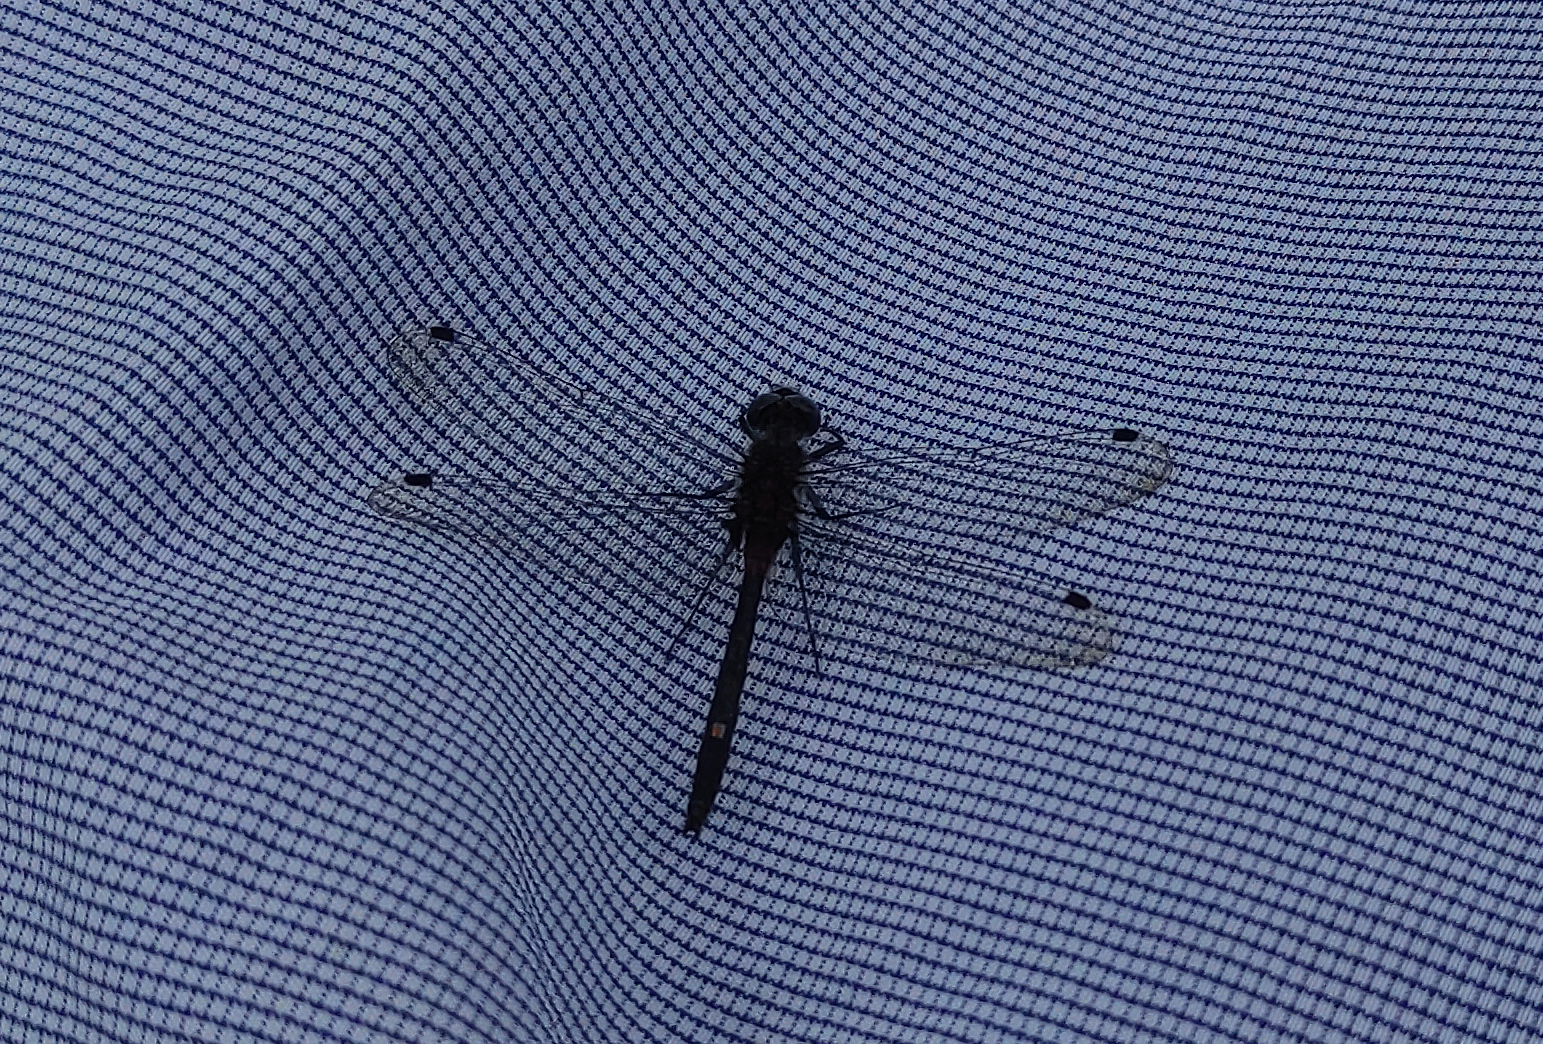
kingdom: Animalia
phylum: Arthropoda
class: Insecta
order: Odonata
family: Libellulidae
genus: Leucorrhinia
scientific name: Leucorrhinia orientalis
